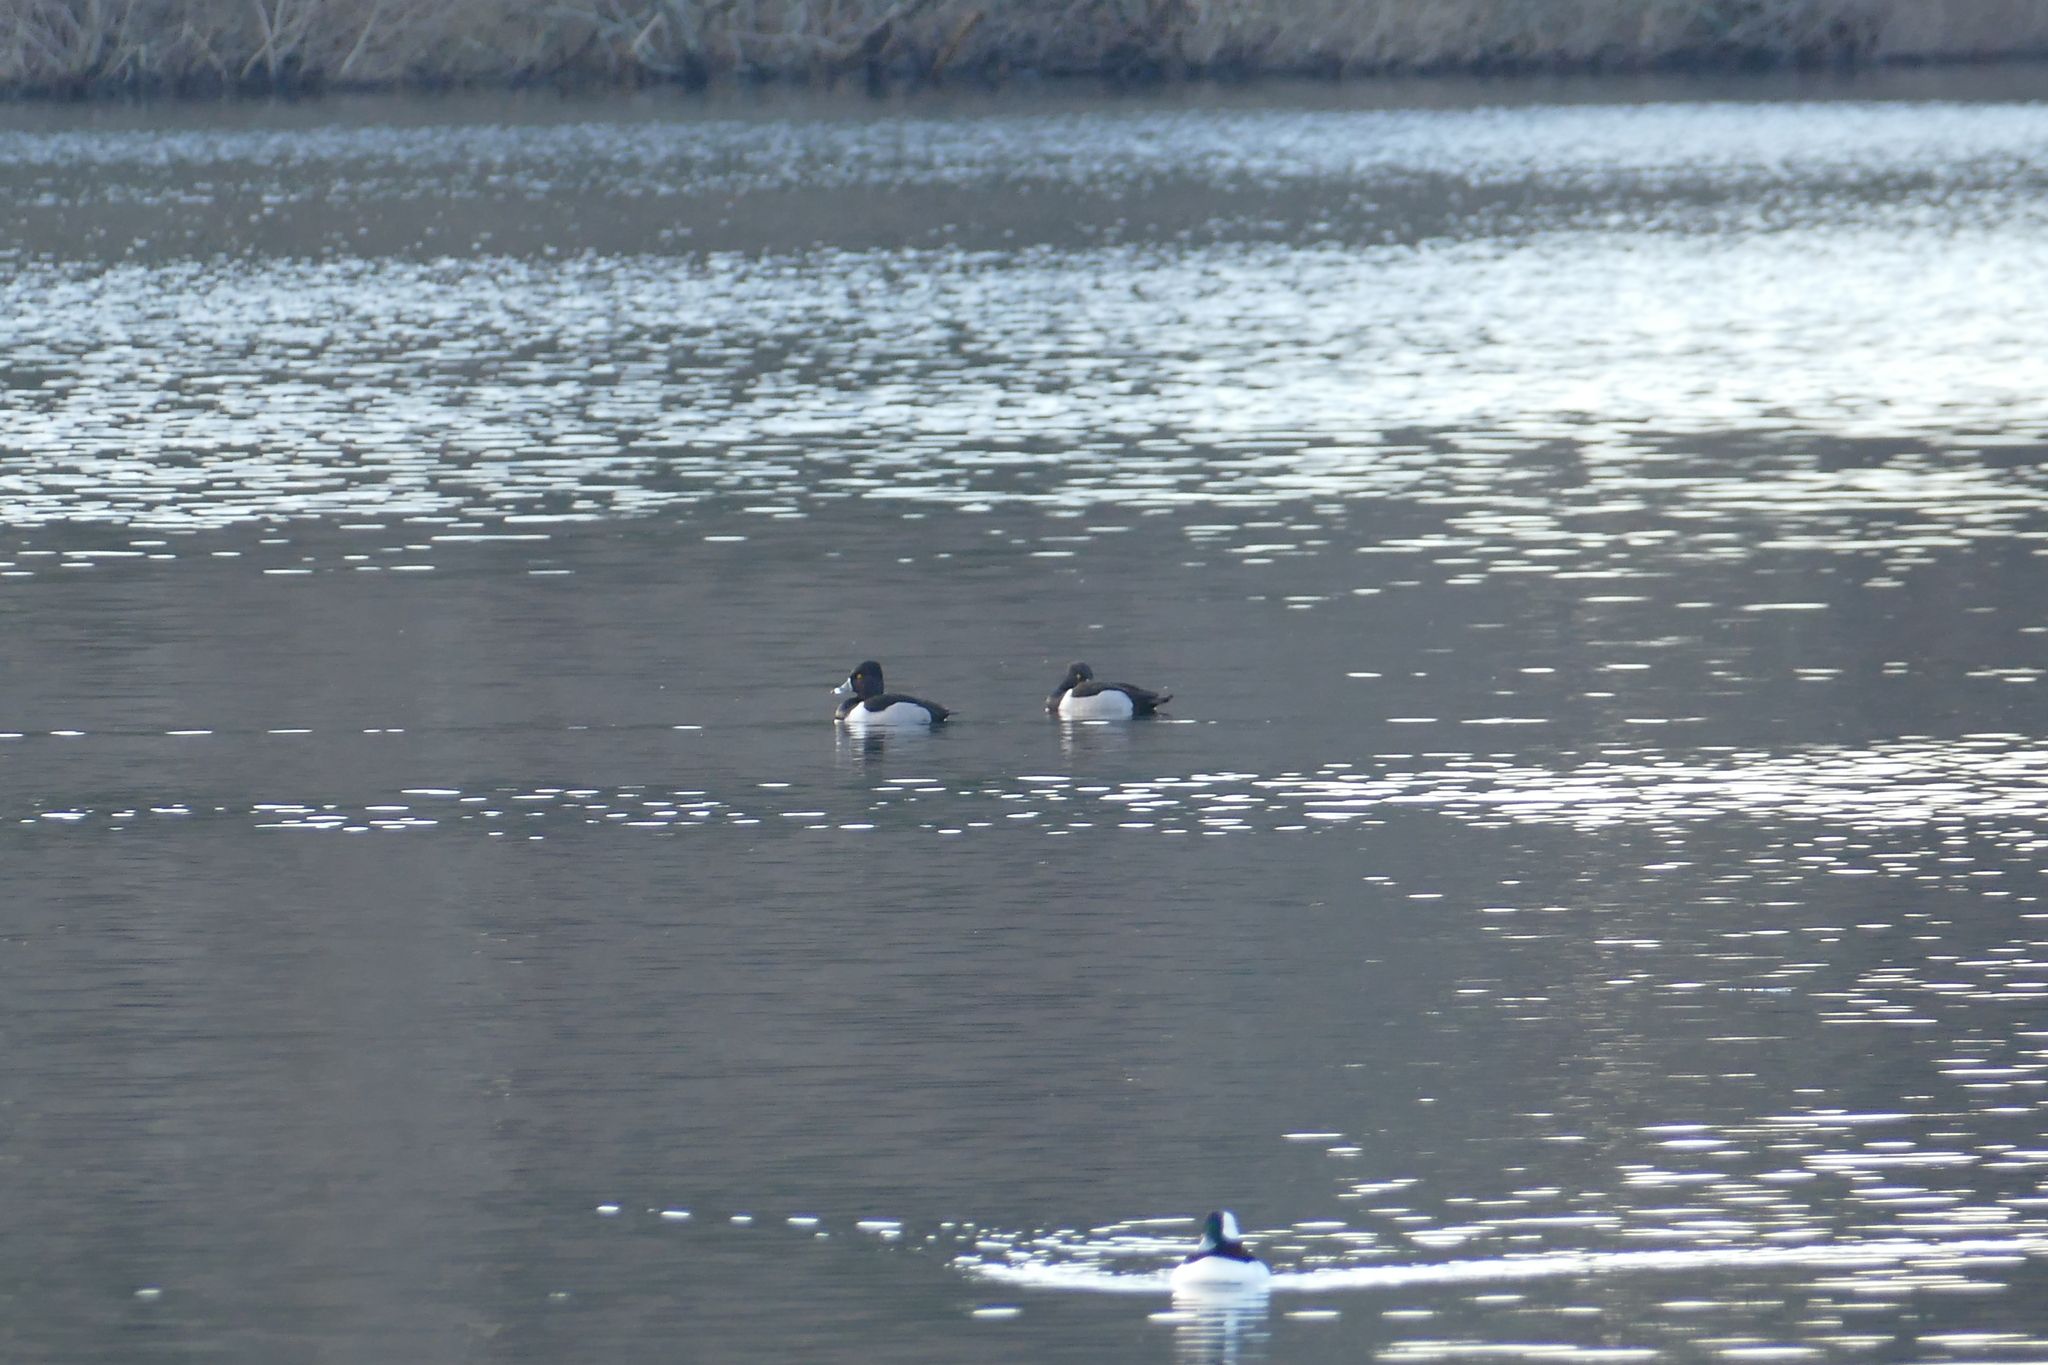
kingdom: Animalia
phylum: Chordata
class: Aves
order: Anseriformes
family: Anatidae
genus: Aythya
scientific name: Aythya collaris
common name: Ring-necked duck
